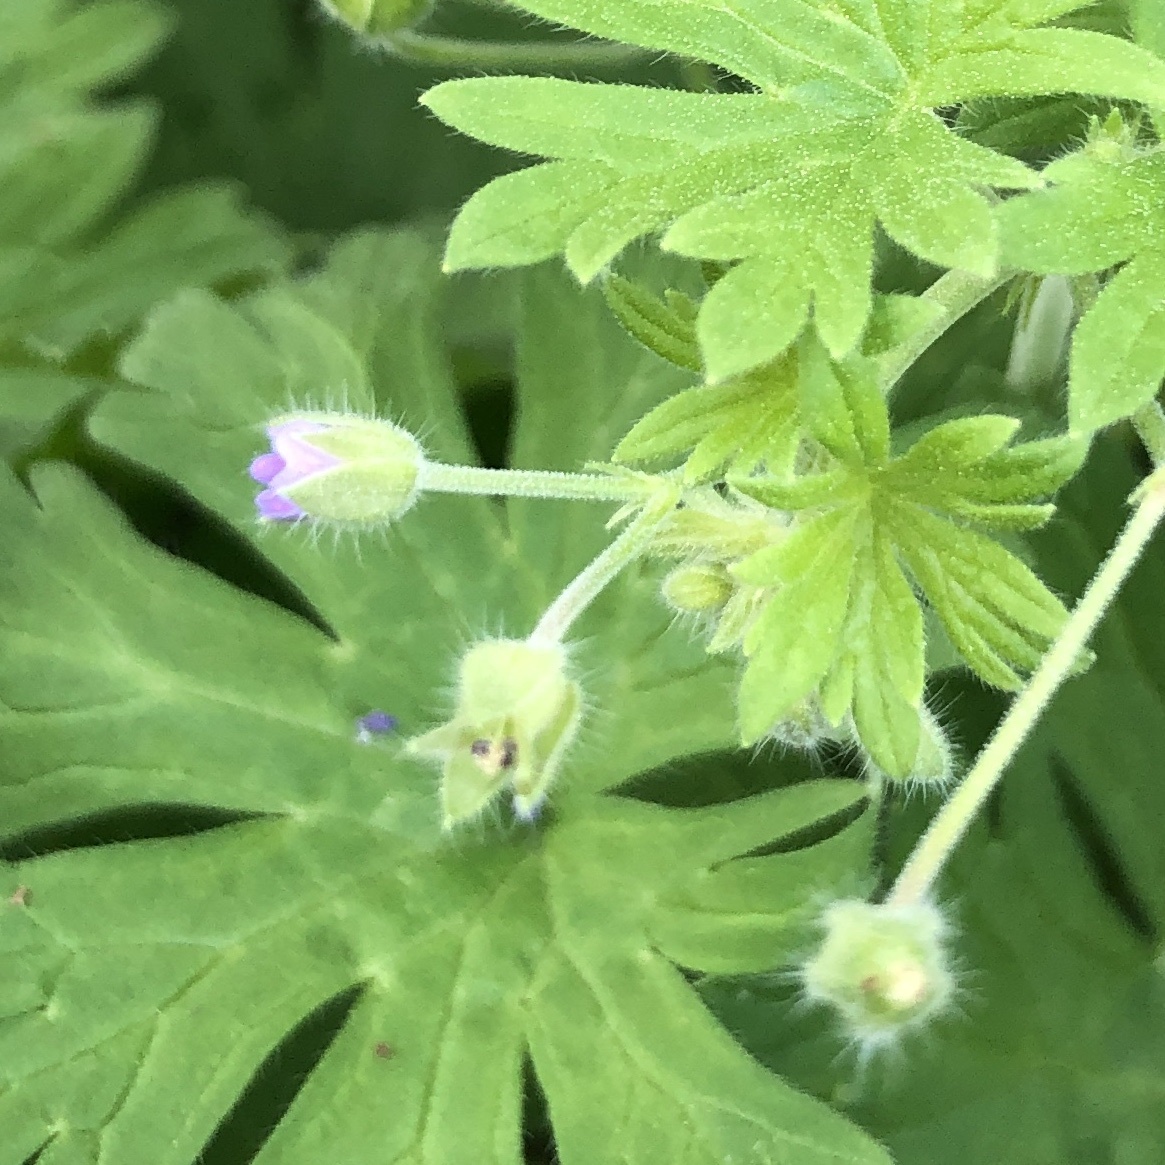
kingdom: Plantae
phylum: Tracheophyta
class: Magnoliopsida
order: Geraniales
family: Geraniaceae
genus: Geranium
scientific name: Geranium pusillum
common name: Small geranium
